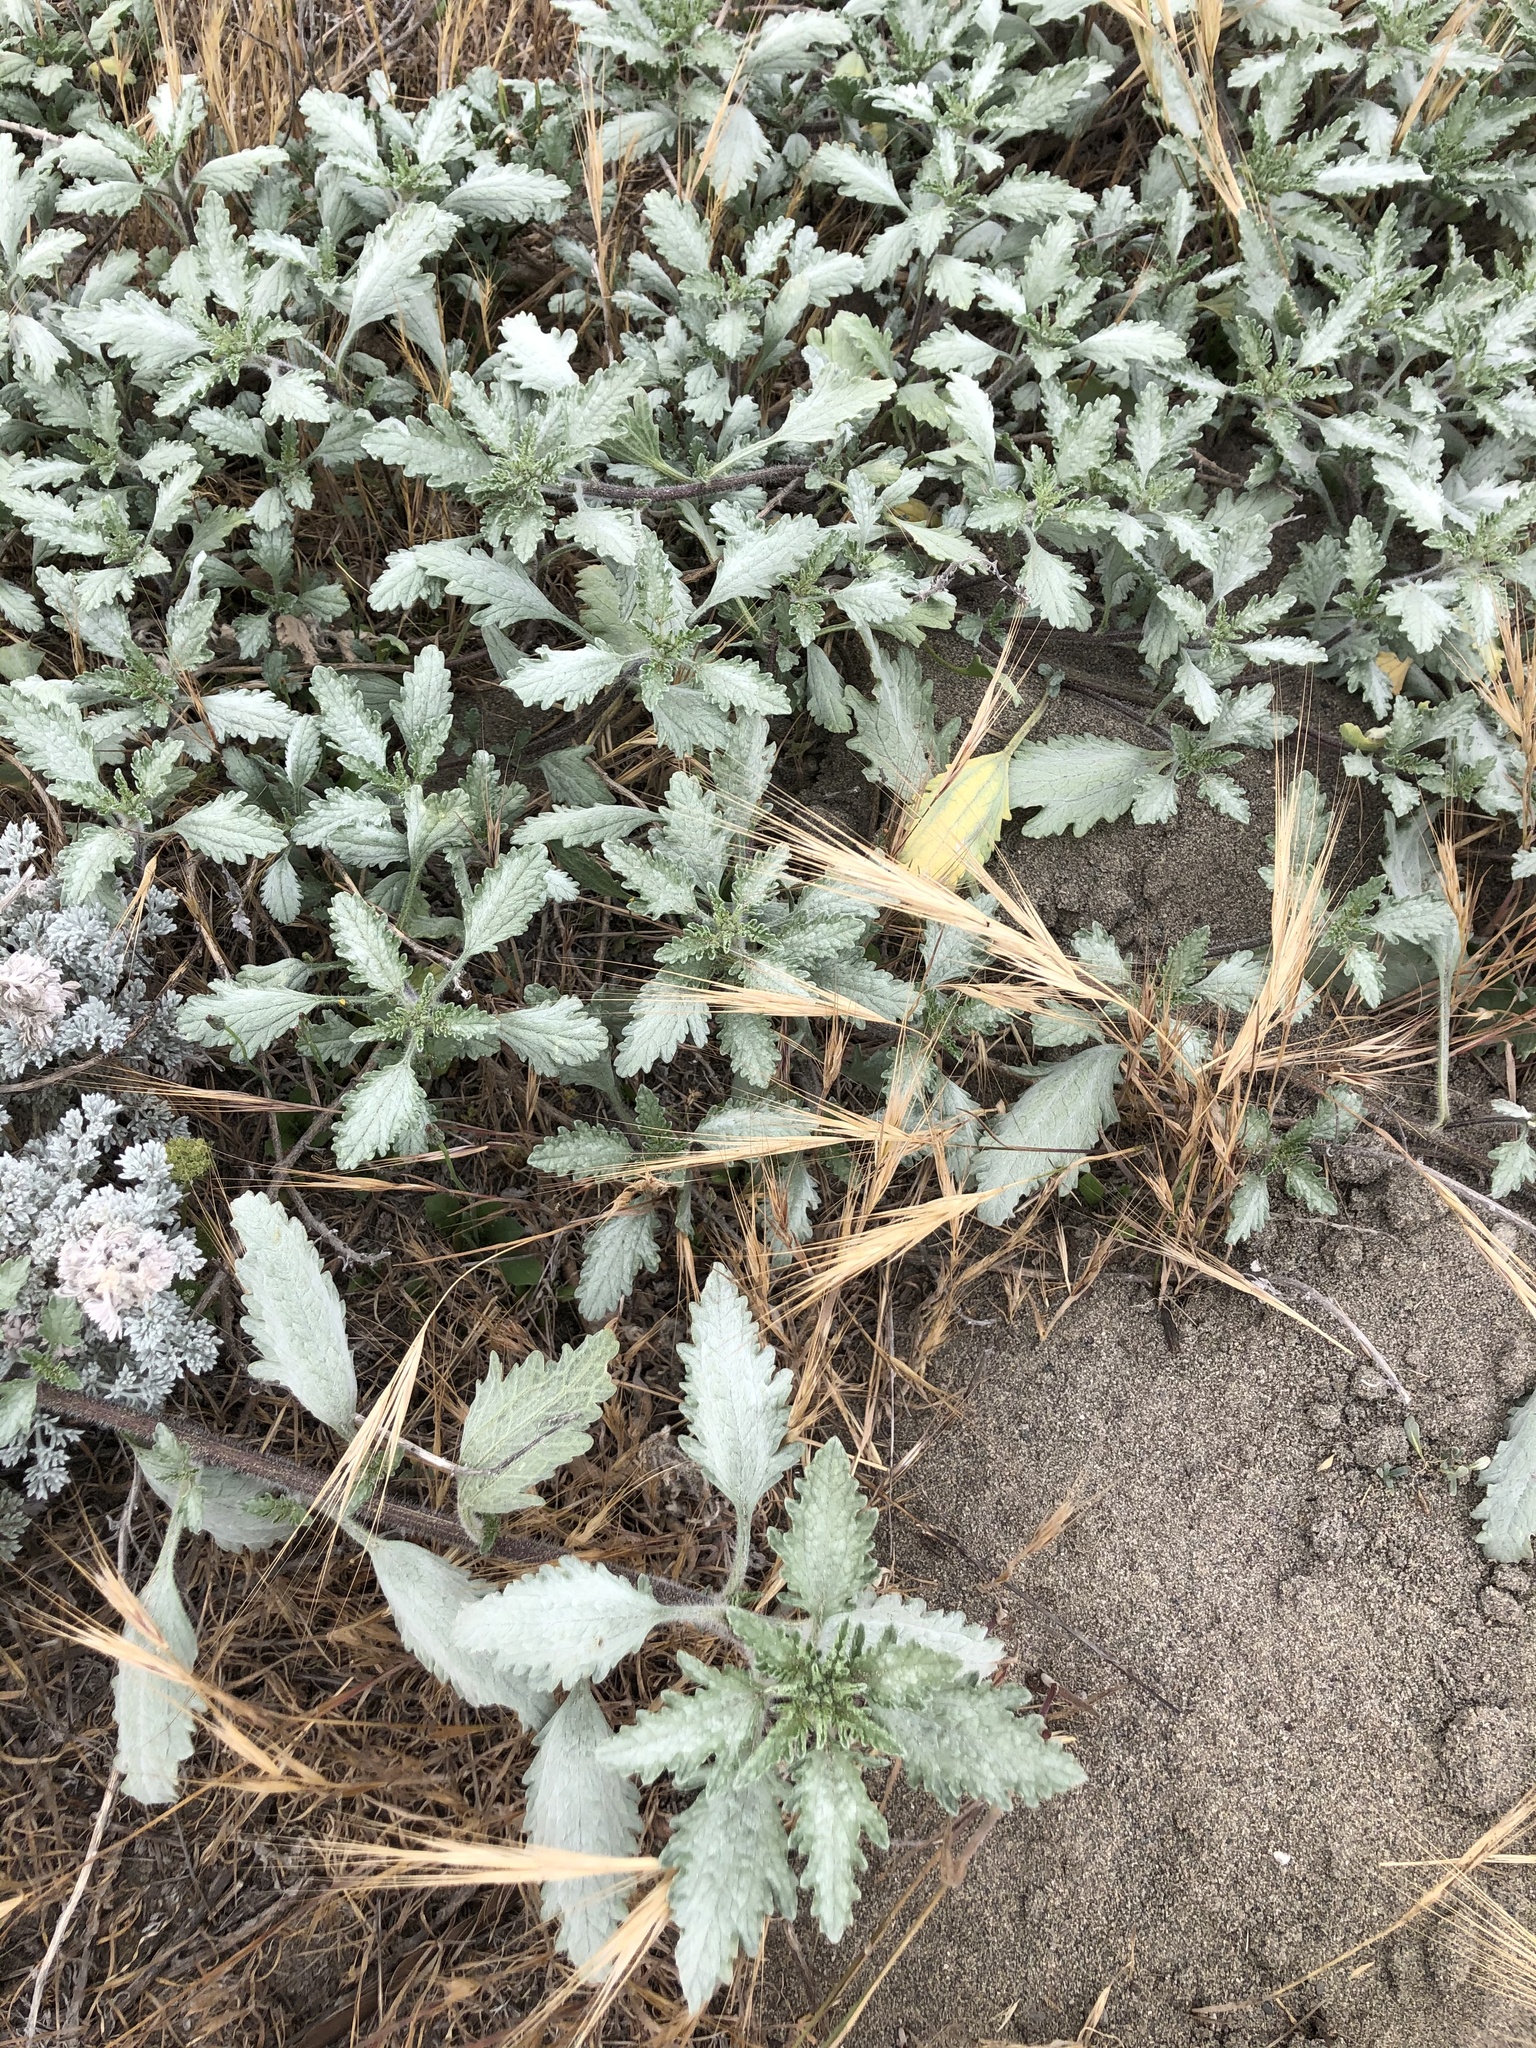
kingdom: Plantae
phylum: Tracheophyta
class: Magnoliopsida
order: Asterales
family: Asteraceae
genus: Ambrosia
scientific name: Ambrosia chamissonis
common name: Beachbur
